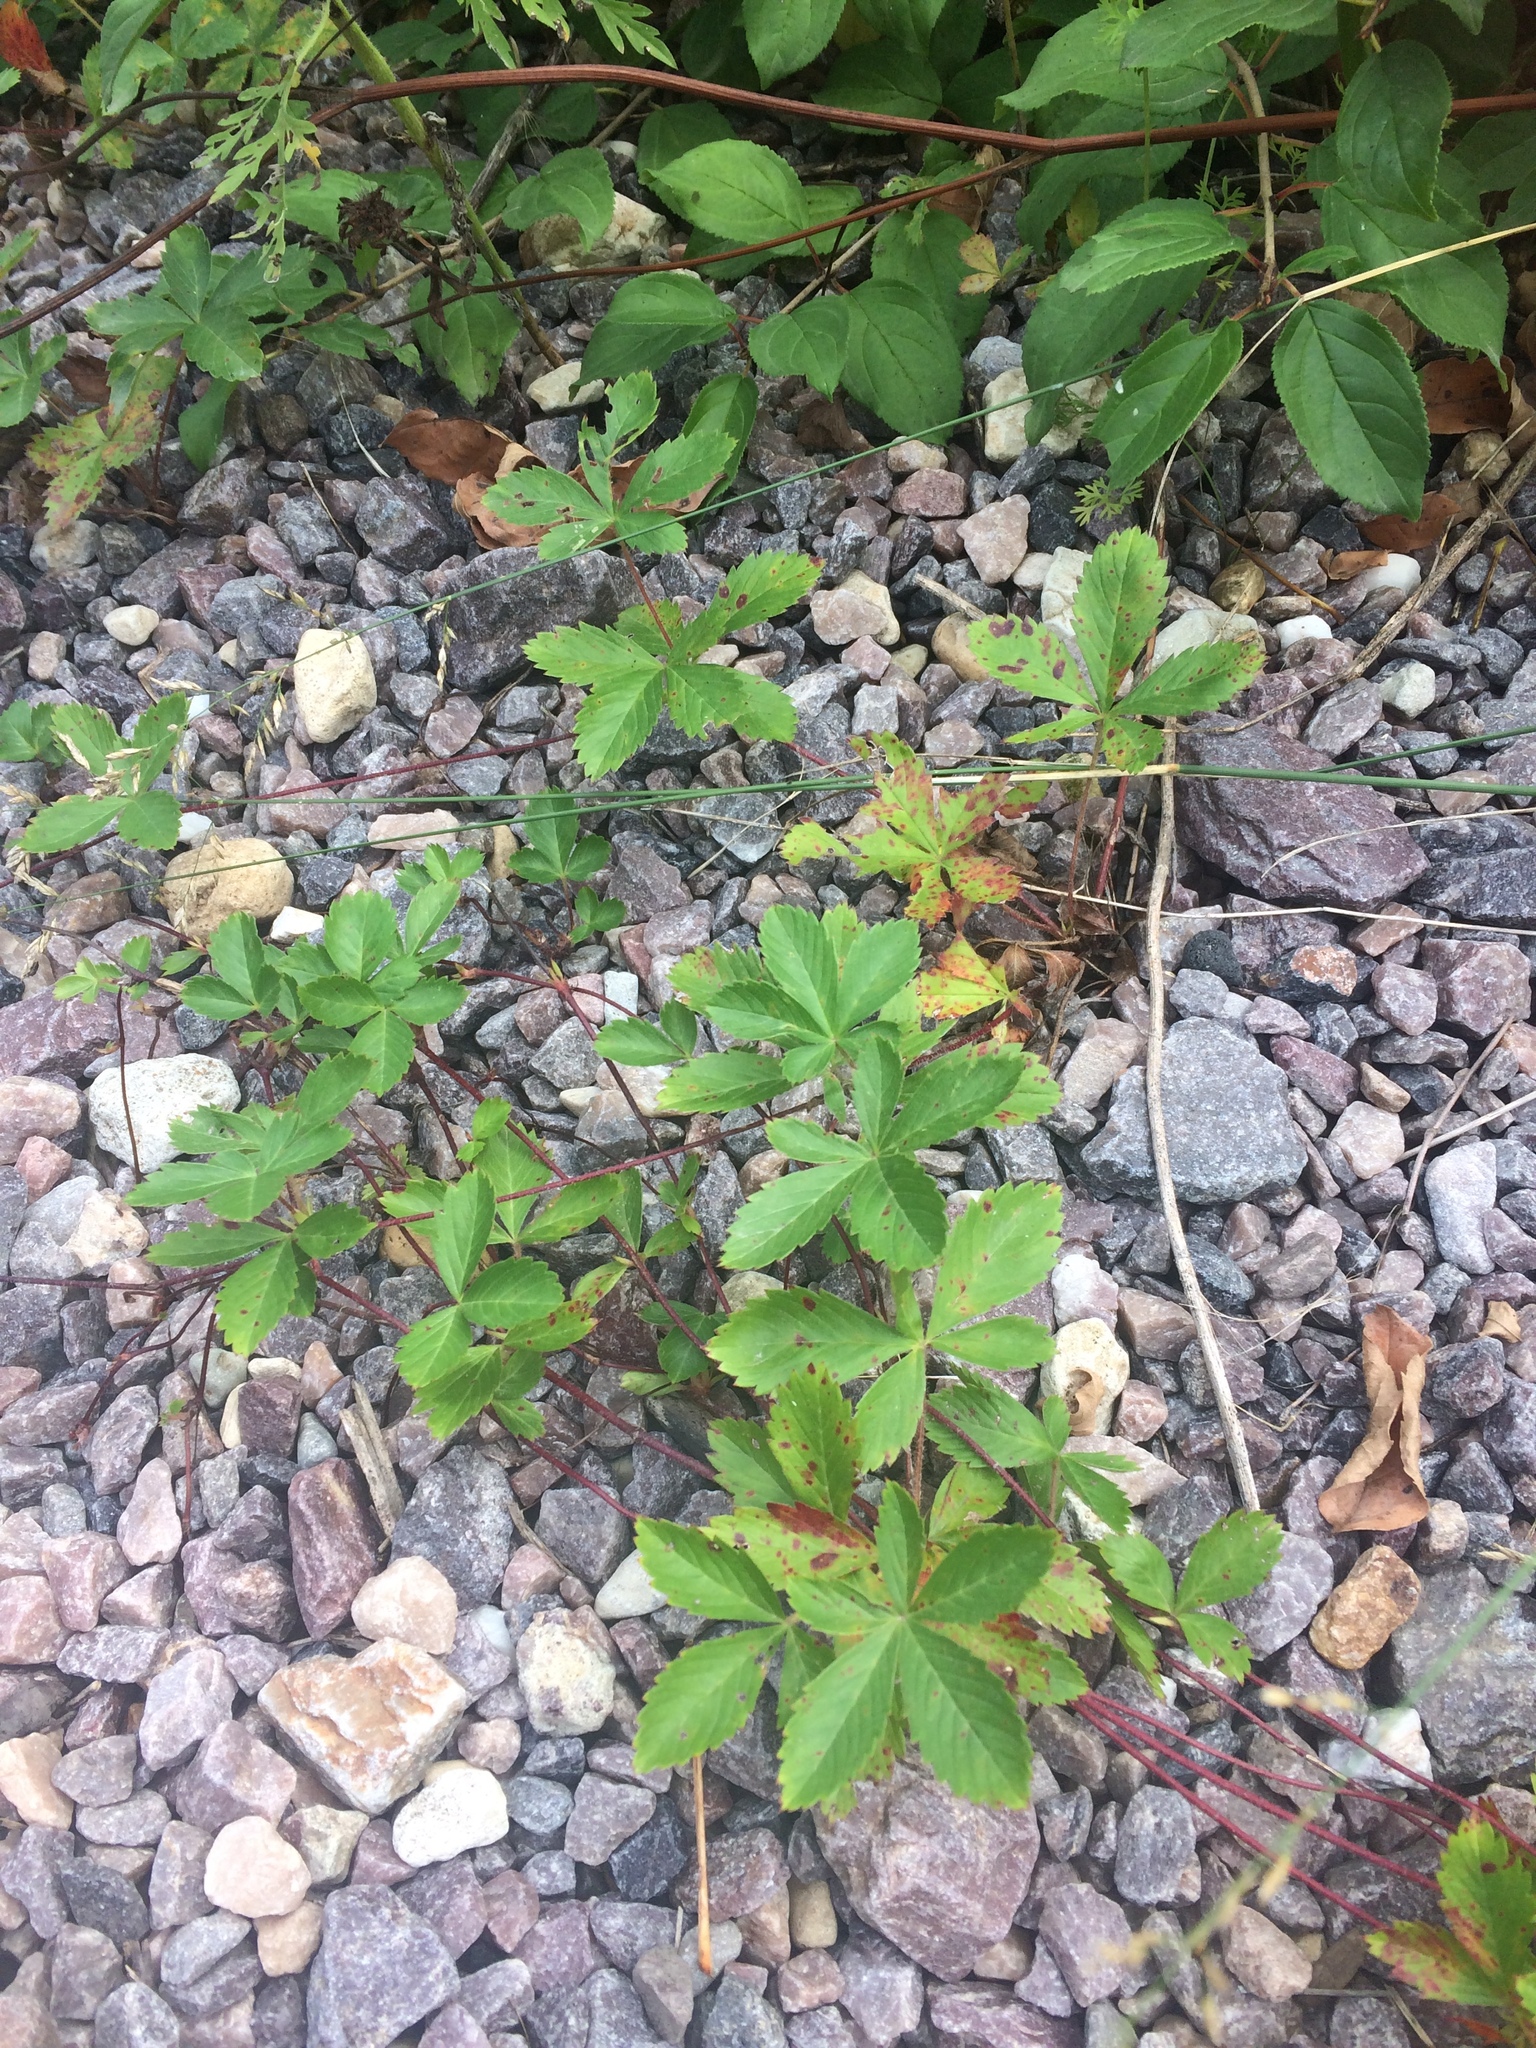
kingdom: Plantae
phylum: Tracheophyta
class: Magnoliopsida
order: Rosales
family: Rosaceae
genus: Potentilla
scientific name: Potentilla simplex
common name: Old field cinquefoil
